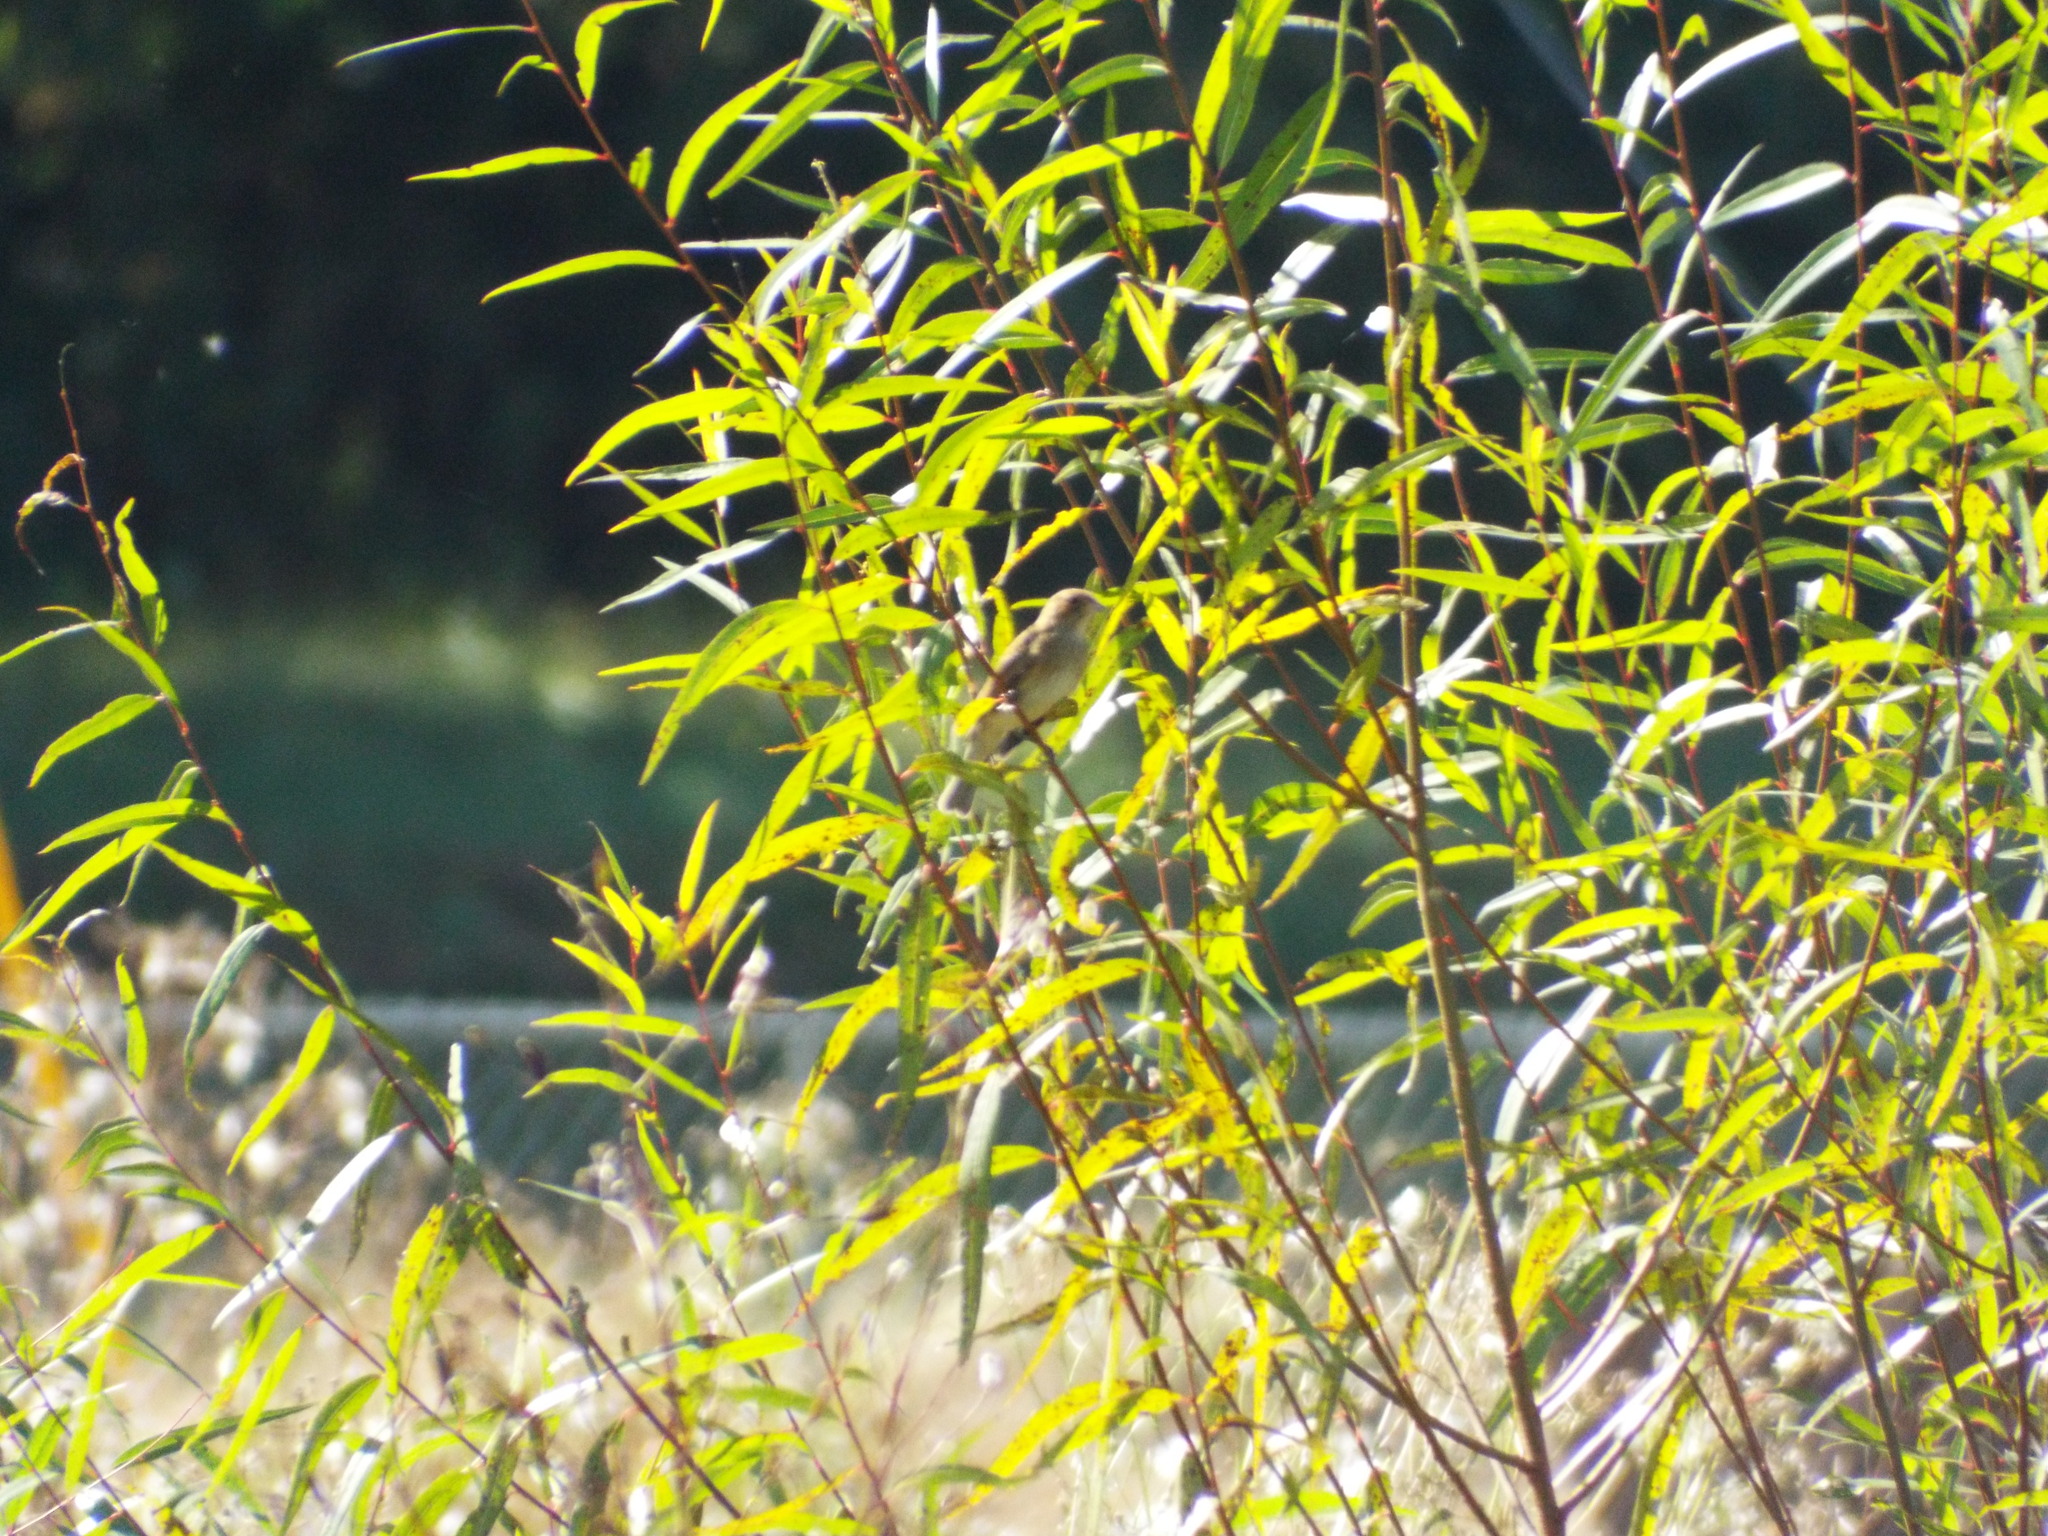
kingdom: Animalia
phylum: Chordata
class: Aves
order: Passeriformes
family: Cardinalidae
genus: Spiza
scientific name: Spiza americana
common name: Dickcissel
